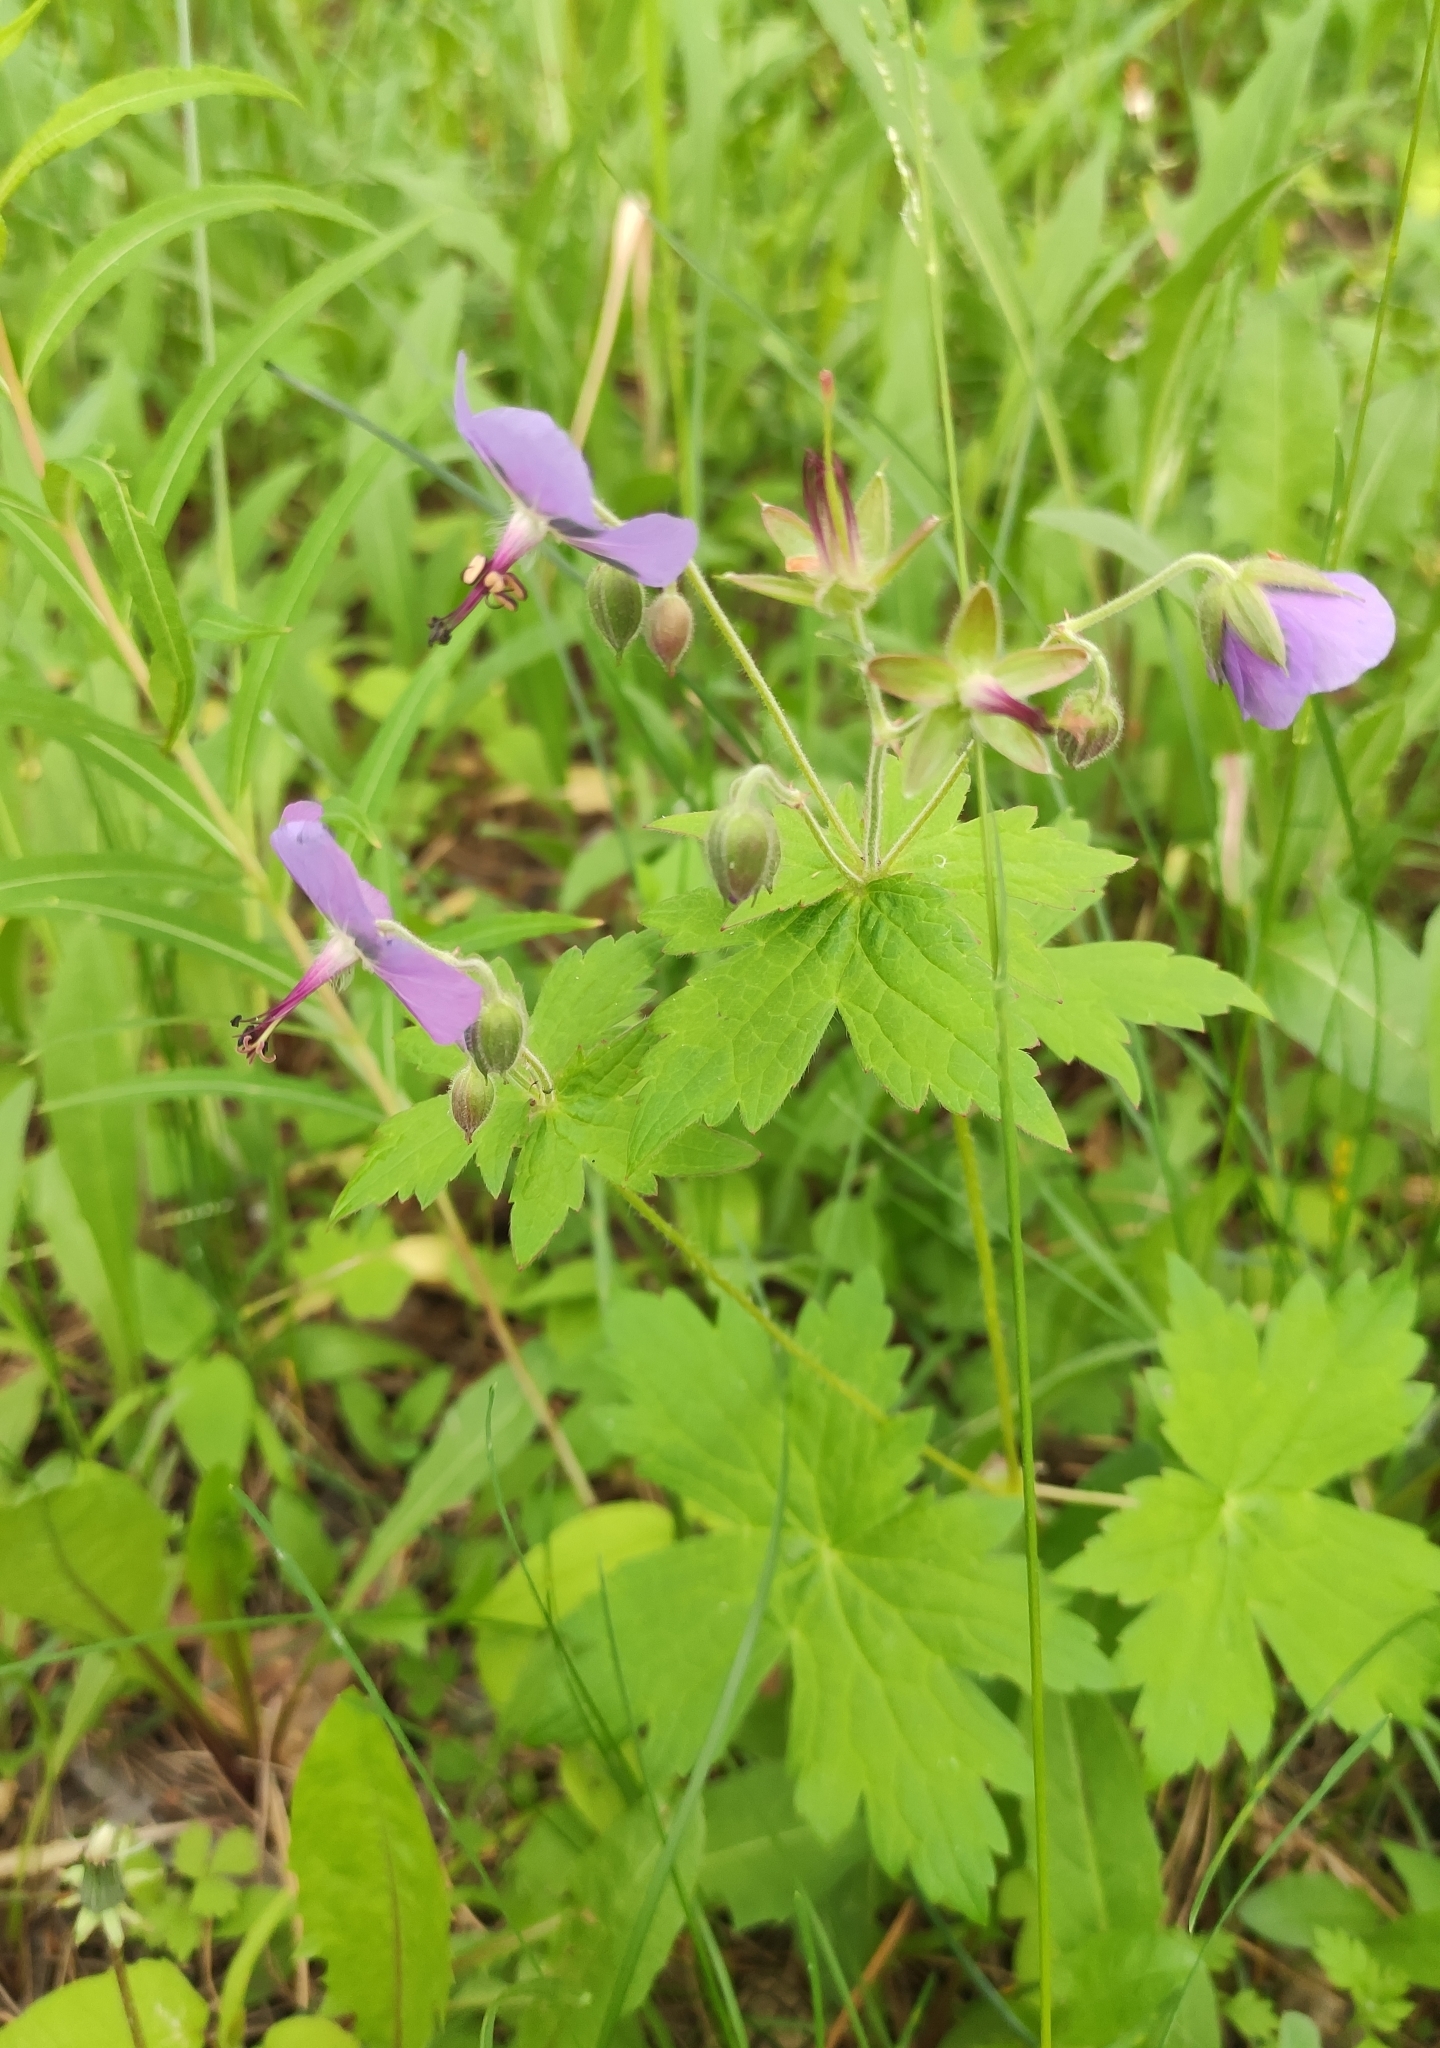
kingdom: Plantae
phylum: Tracheophyta
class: Magnoliopsida
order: Geraniales
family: Geraniaceae
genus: Geranium
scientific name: Geranium platyanthum
